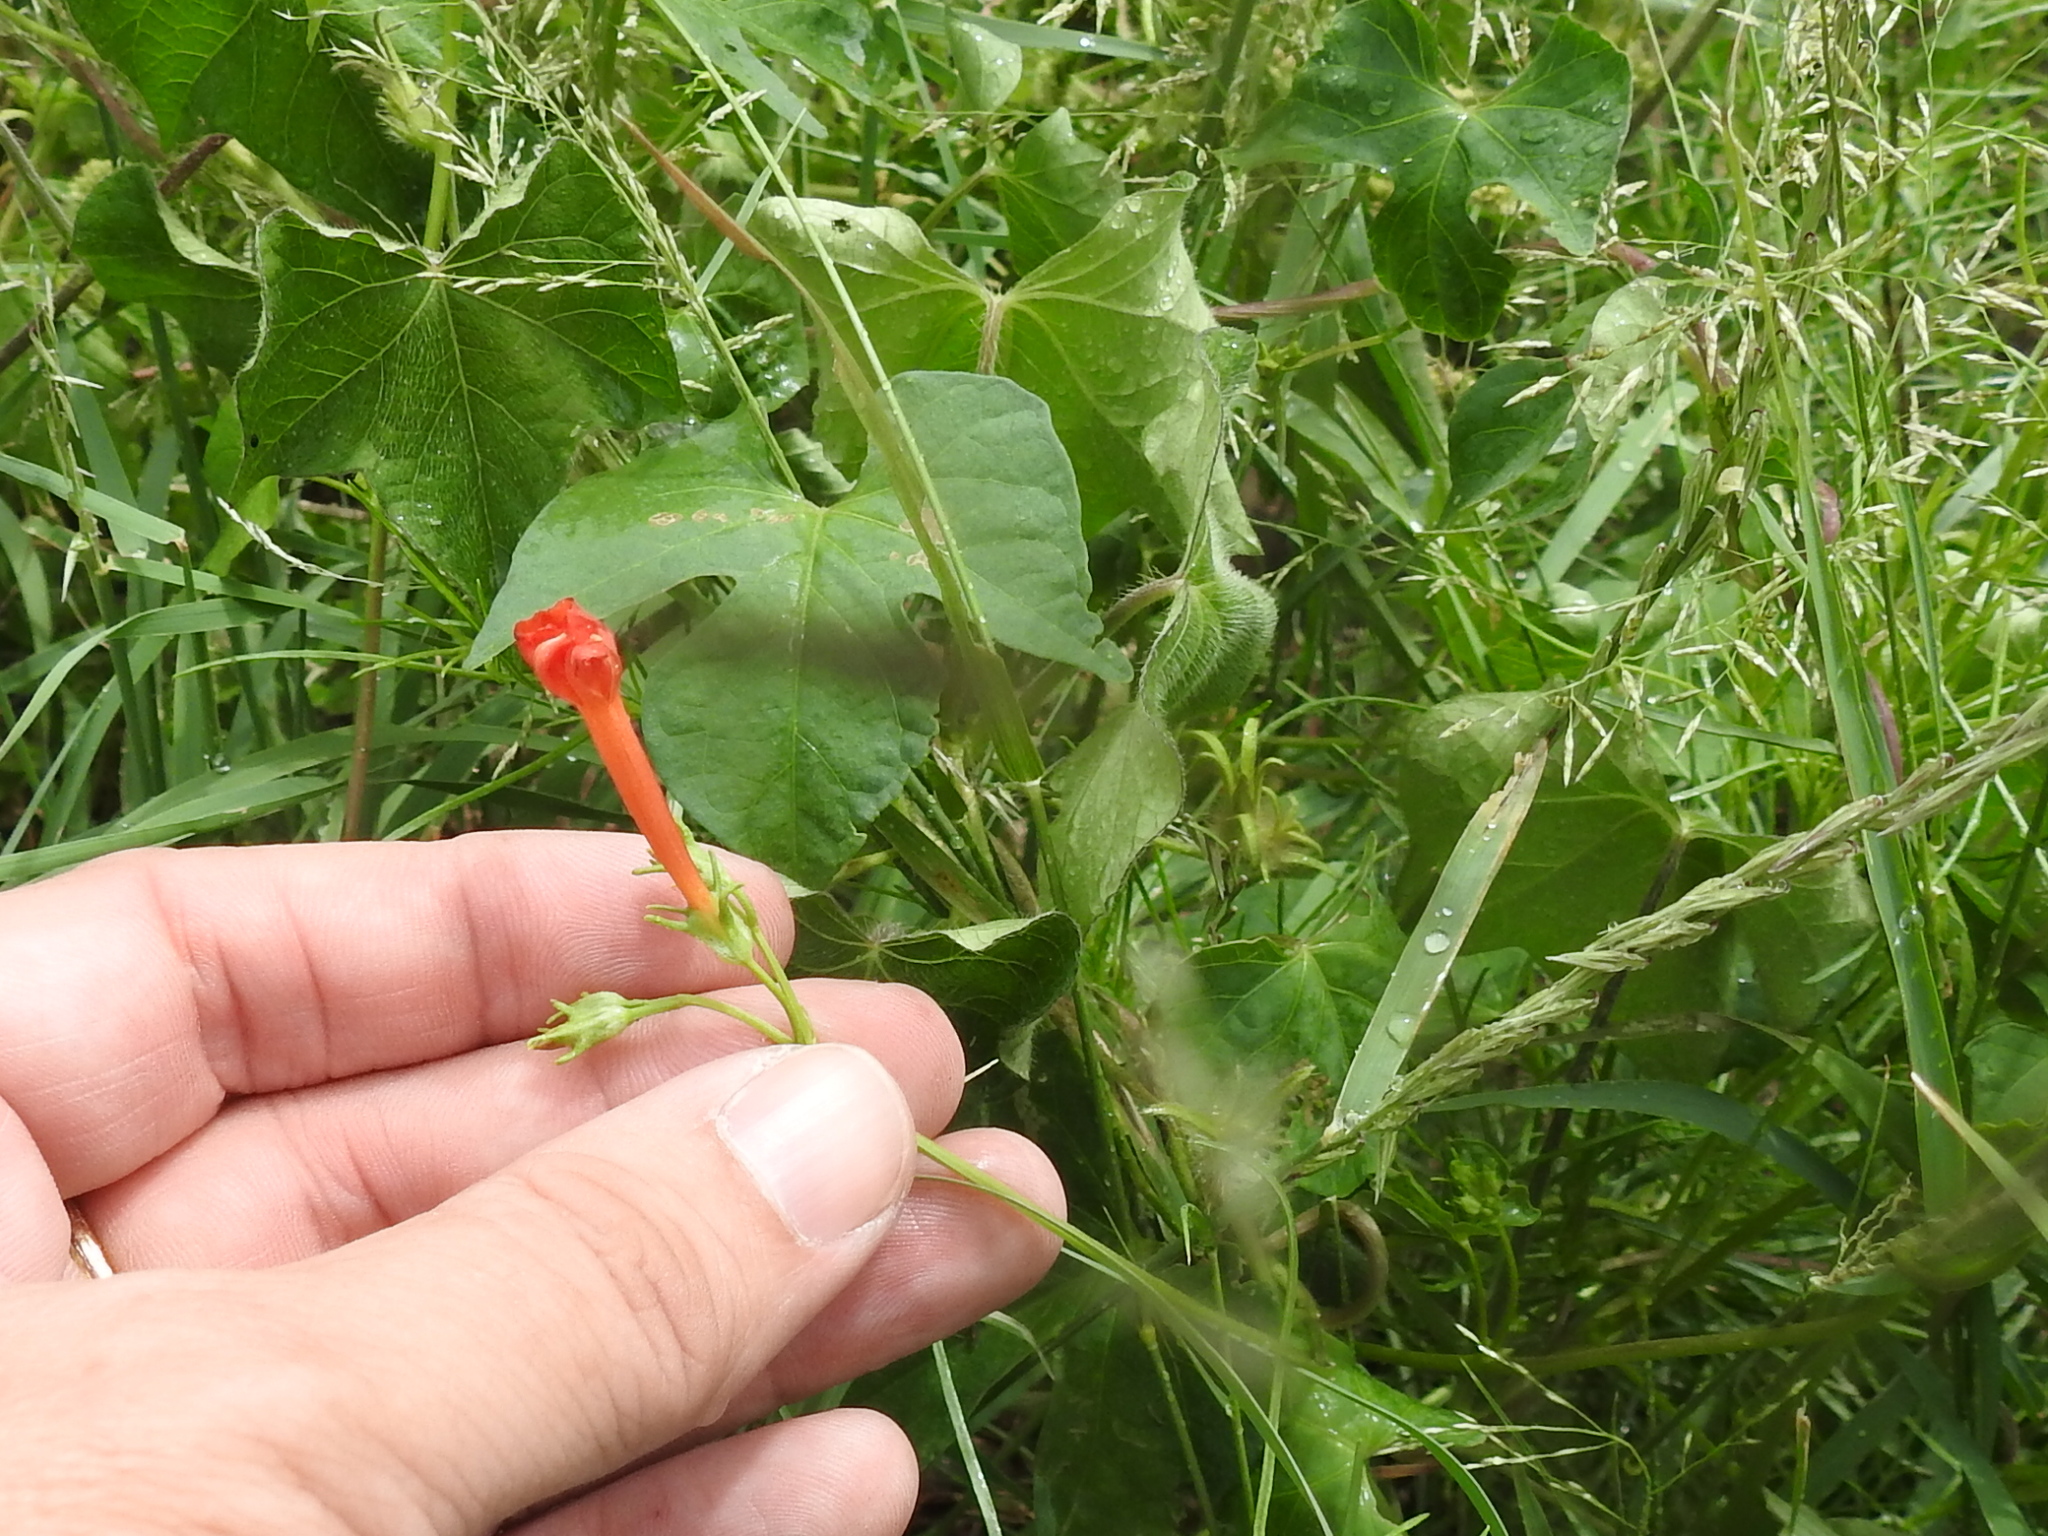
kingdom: Plantae
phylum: Tracheophyta
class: Magnoliopsida
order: Solanales
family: Convolvulaceae
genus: Ipomoea
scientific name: Ipomoea cristulata
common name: Trans-pecos morning-glory
